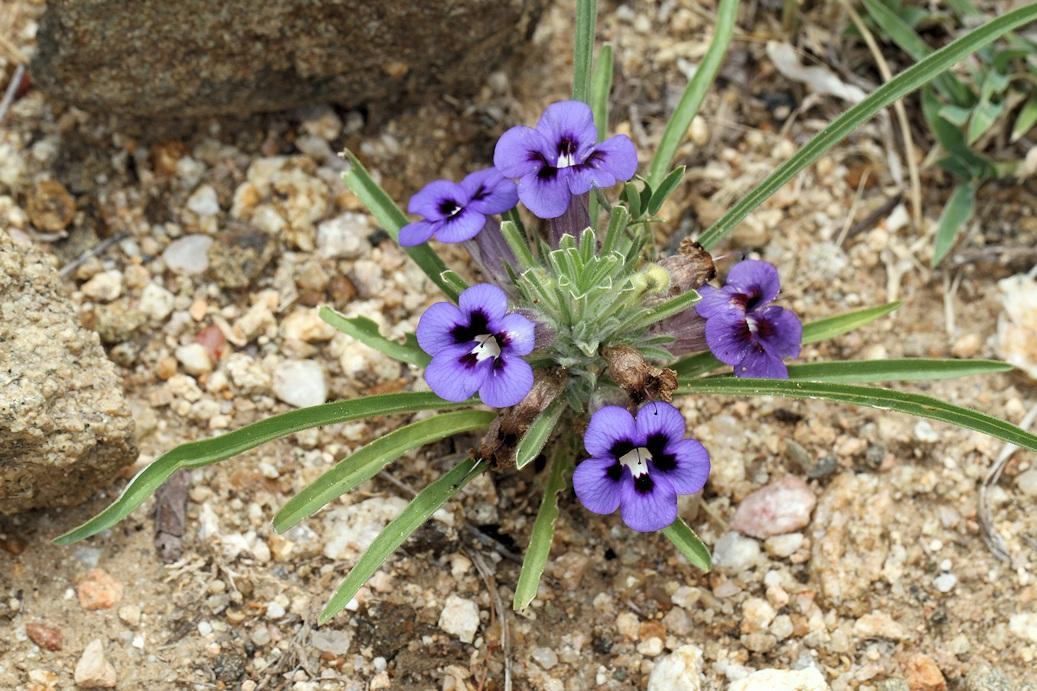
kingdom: Plantae
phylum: Tracheophyta
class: Magnoliopsida
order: Lamiales
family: Scrophulariaceae
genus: Aptosimum
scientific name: Aptosimum lineare
